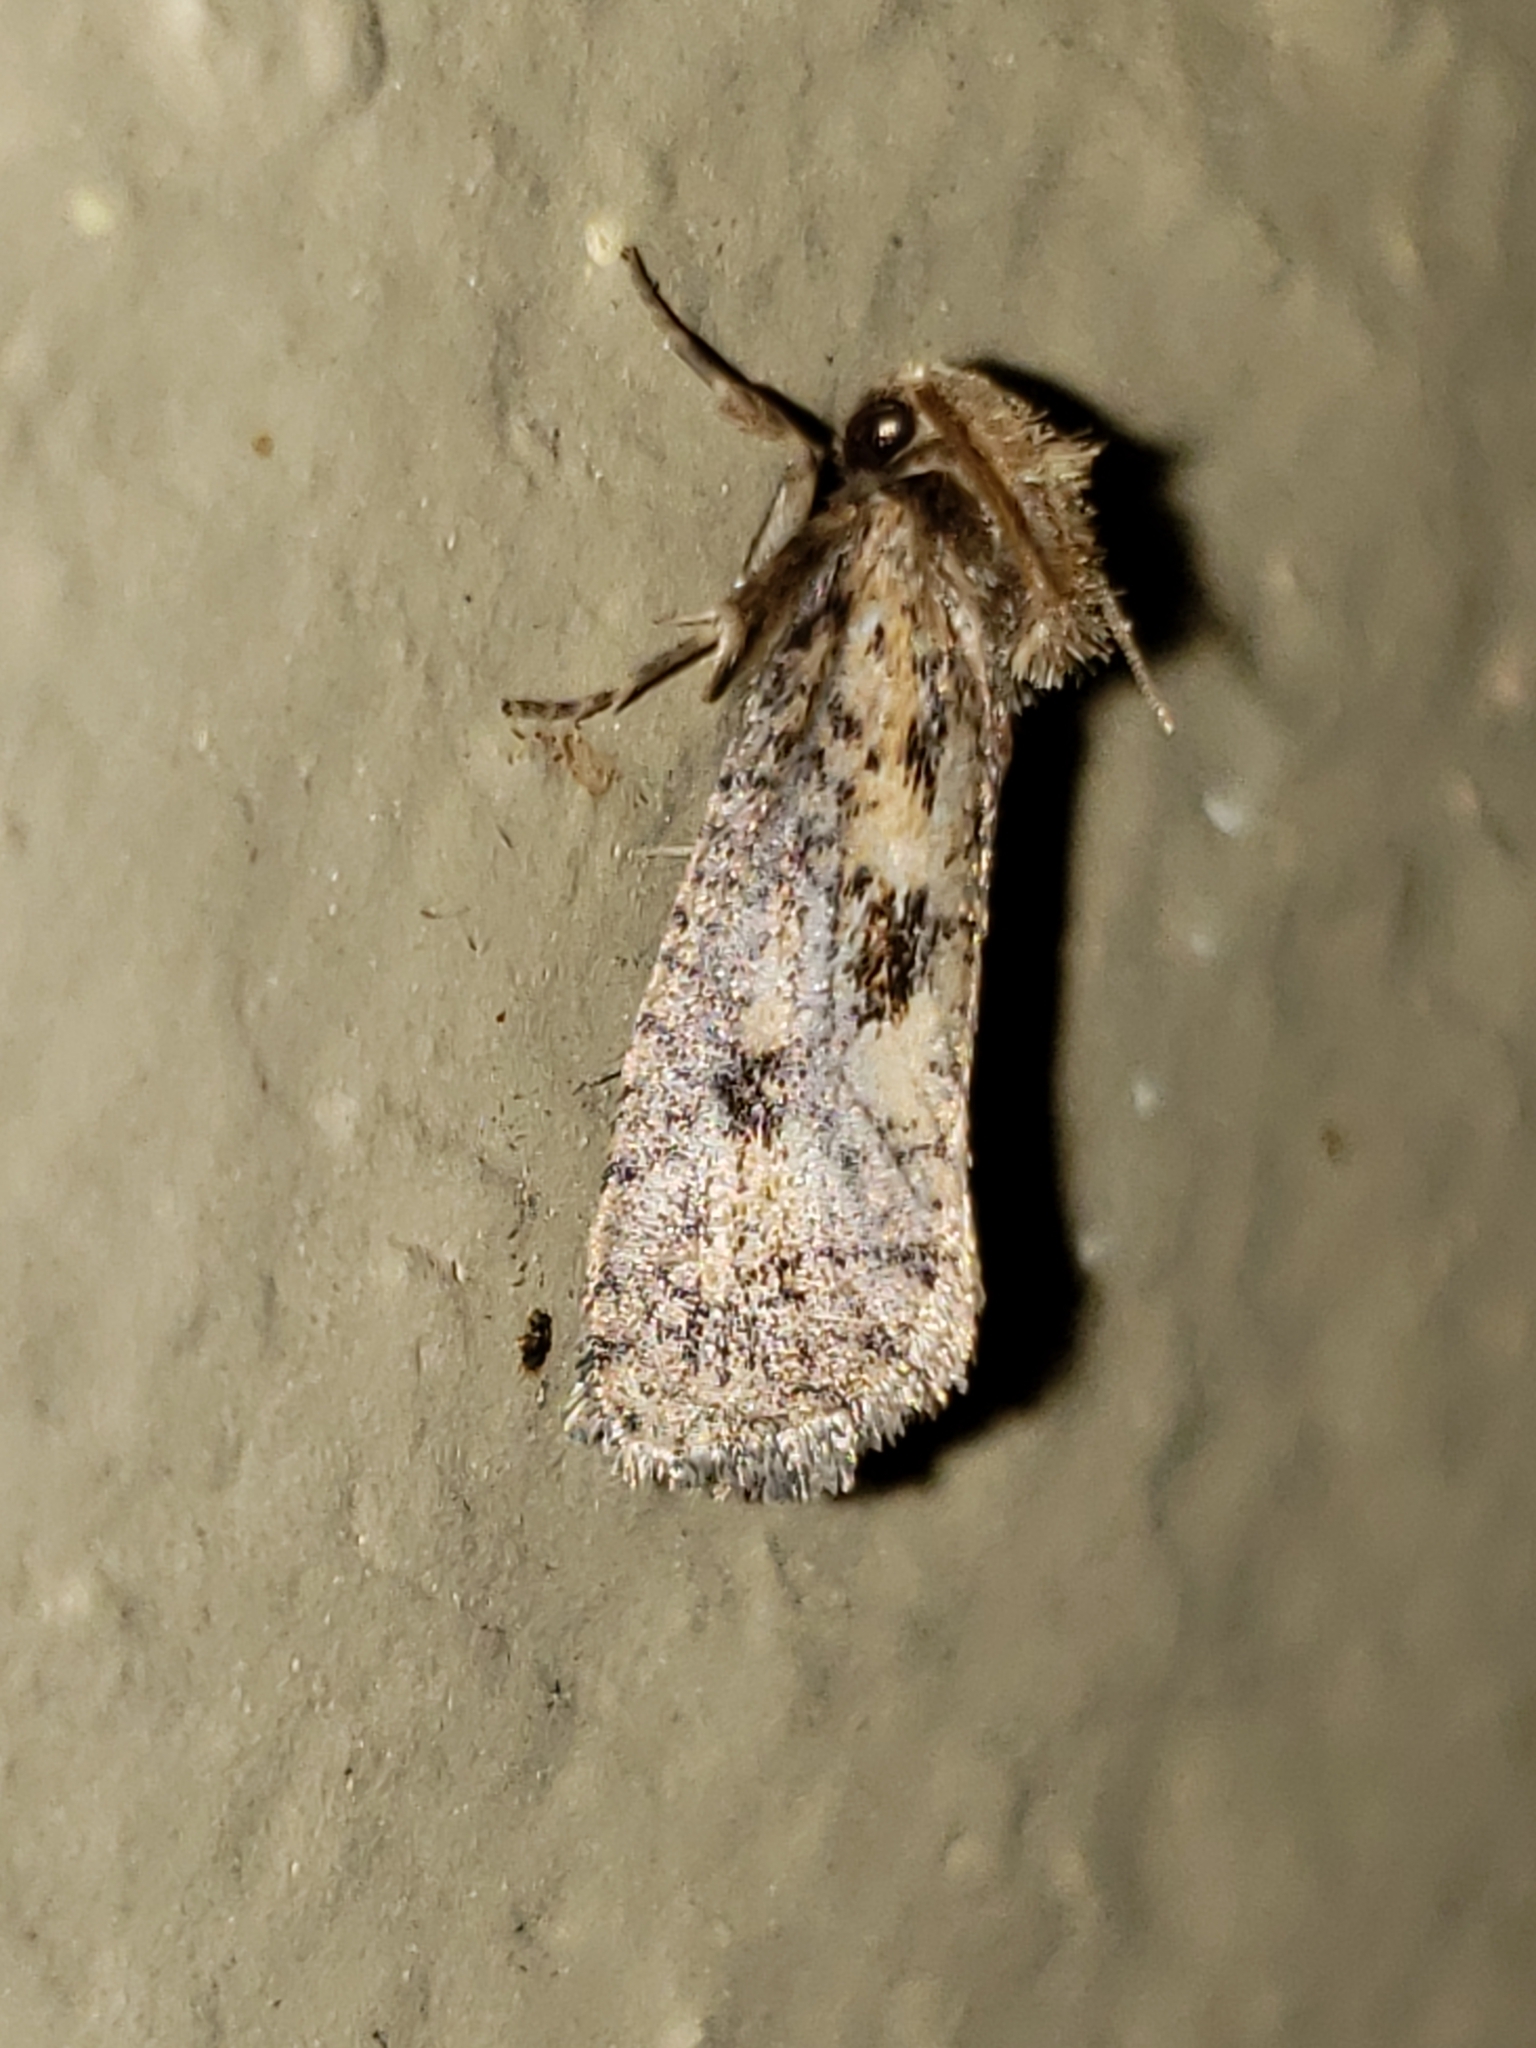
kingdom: Animalia
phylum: Arthropoda
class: Insecta
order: Lepidoptera
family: Tineidae
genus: Acrolophus
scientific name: Acrolophus popeanella
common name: Clemens' grass tubeworm moth
